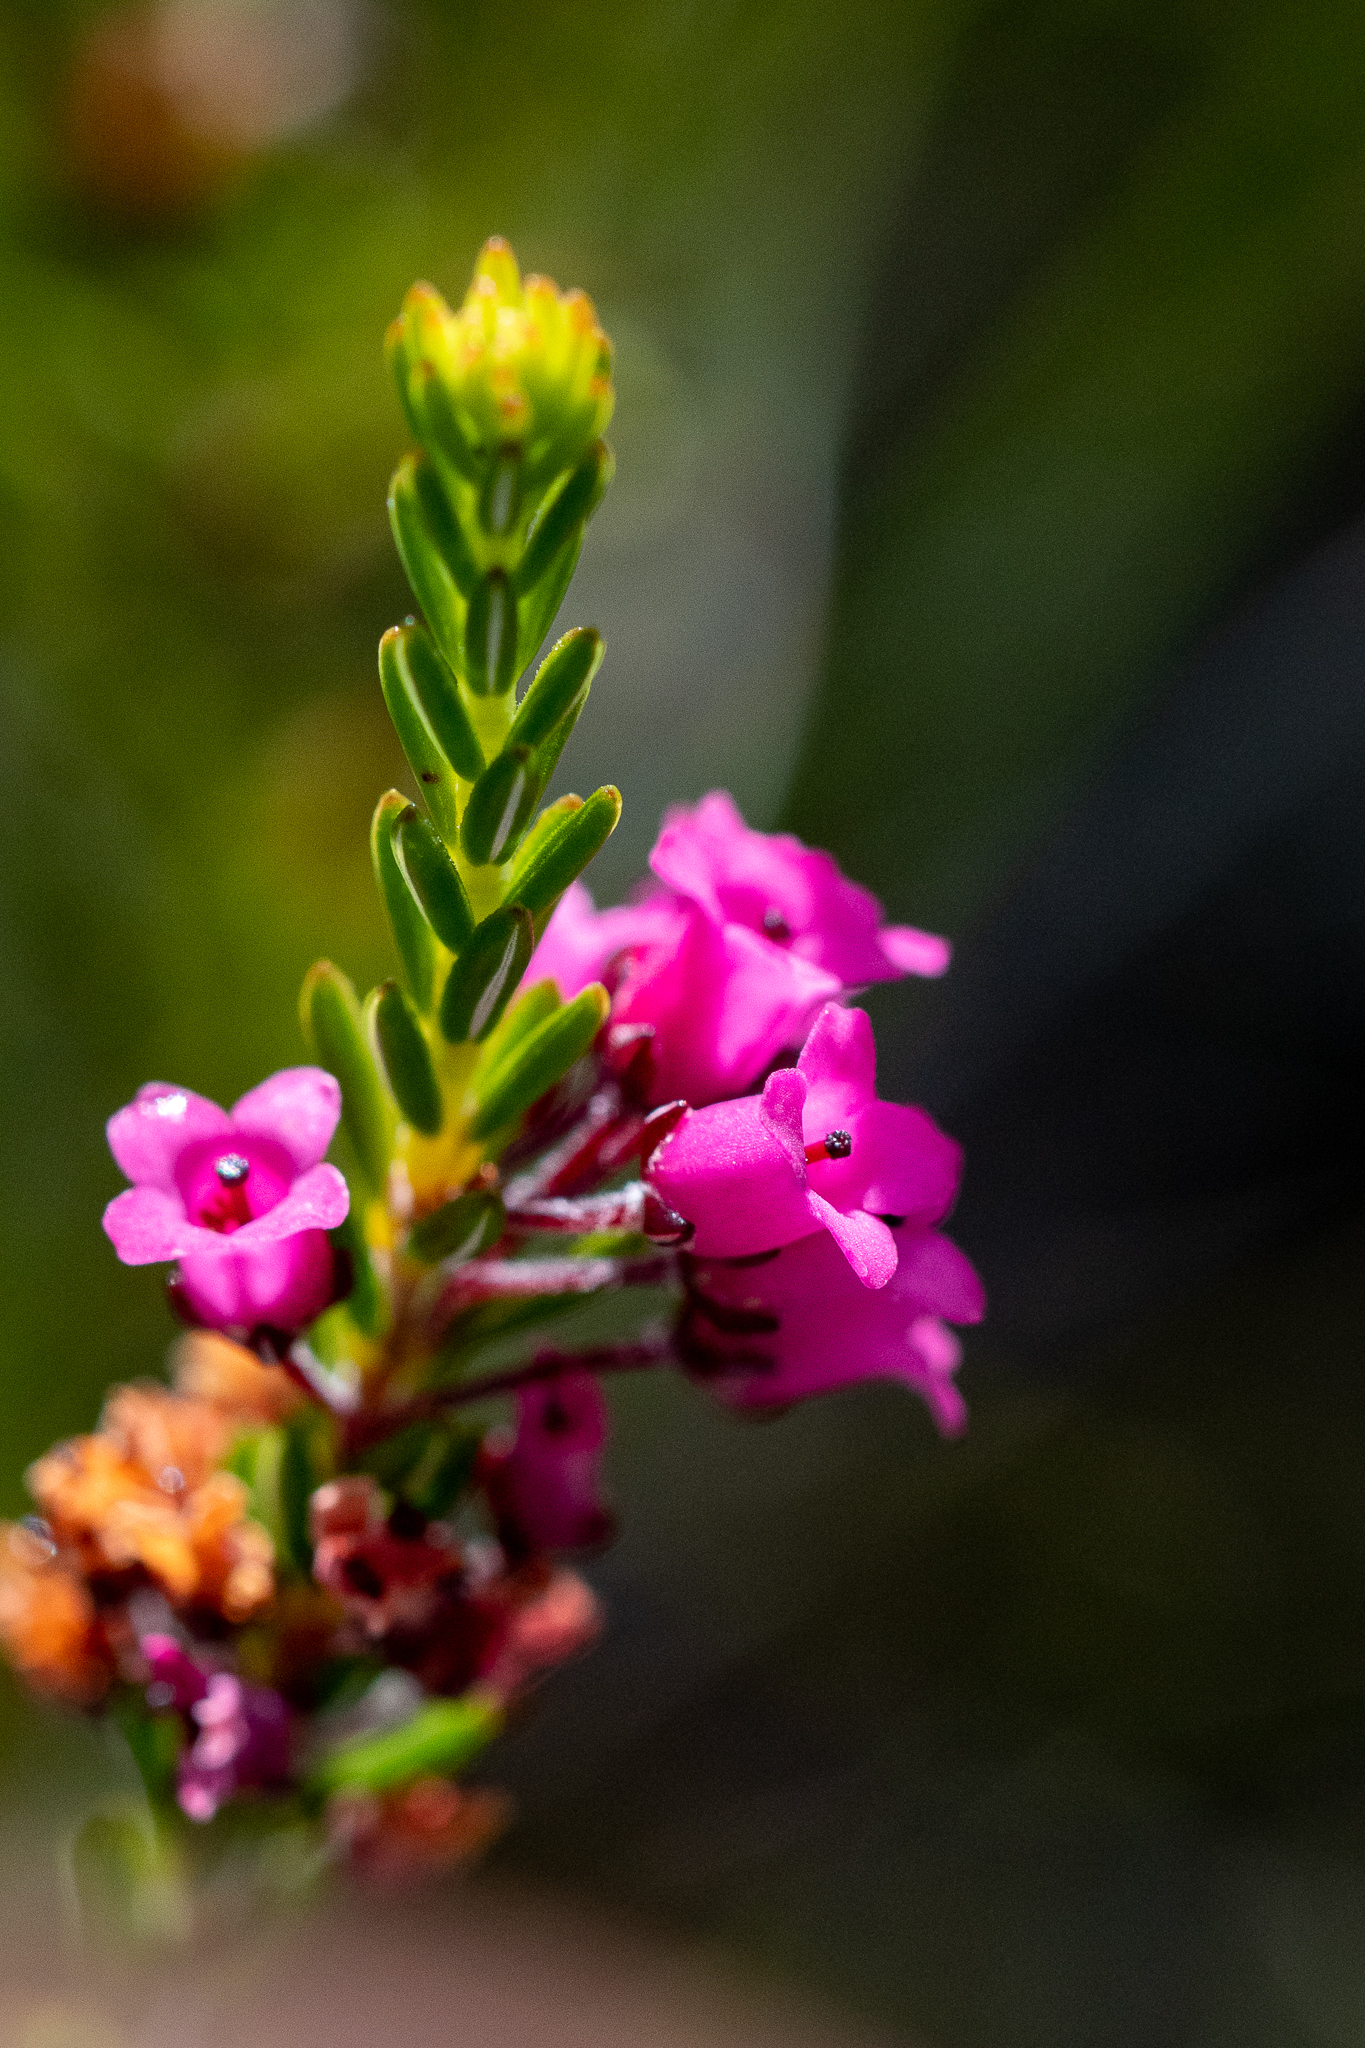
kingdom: Plantae
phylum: Tracheophyta
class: Magnoliopsida
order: Ericales
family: Ericaceae
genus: Erica
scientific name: Erica pulchella
